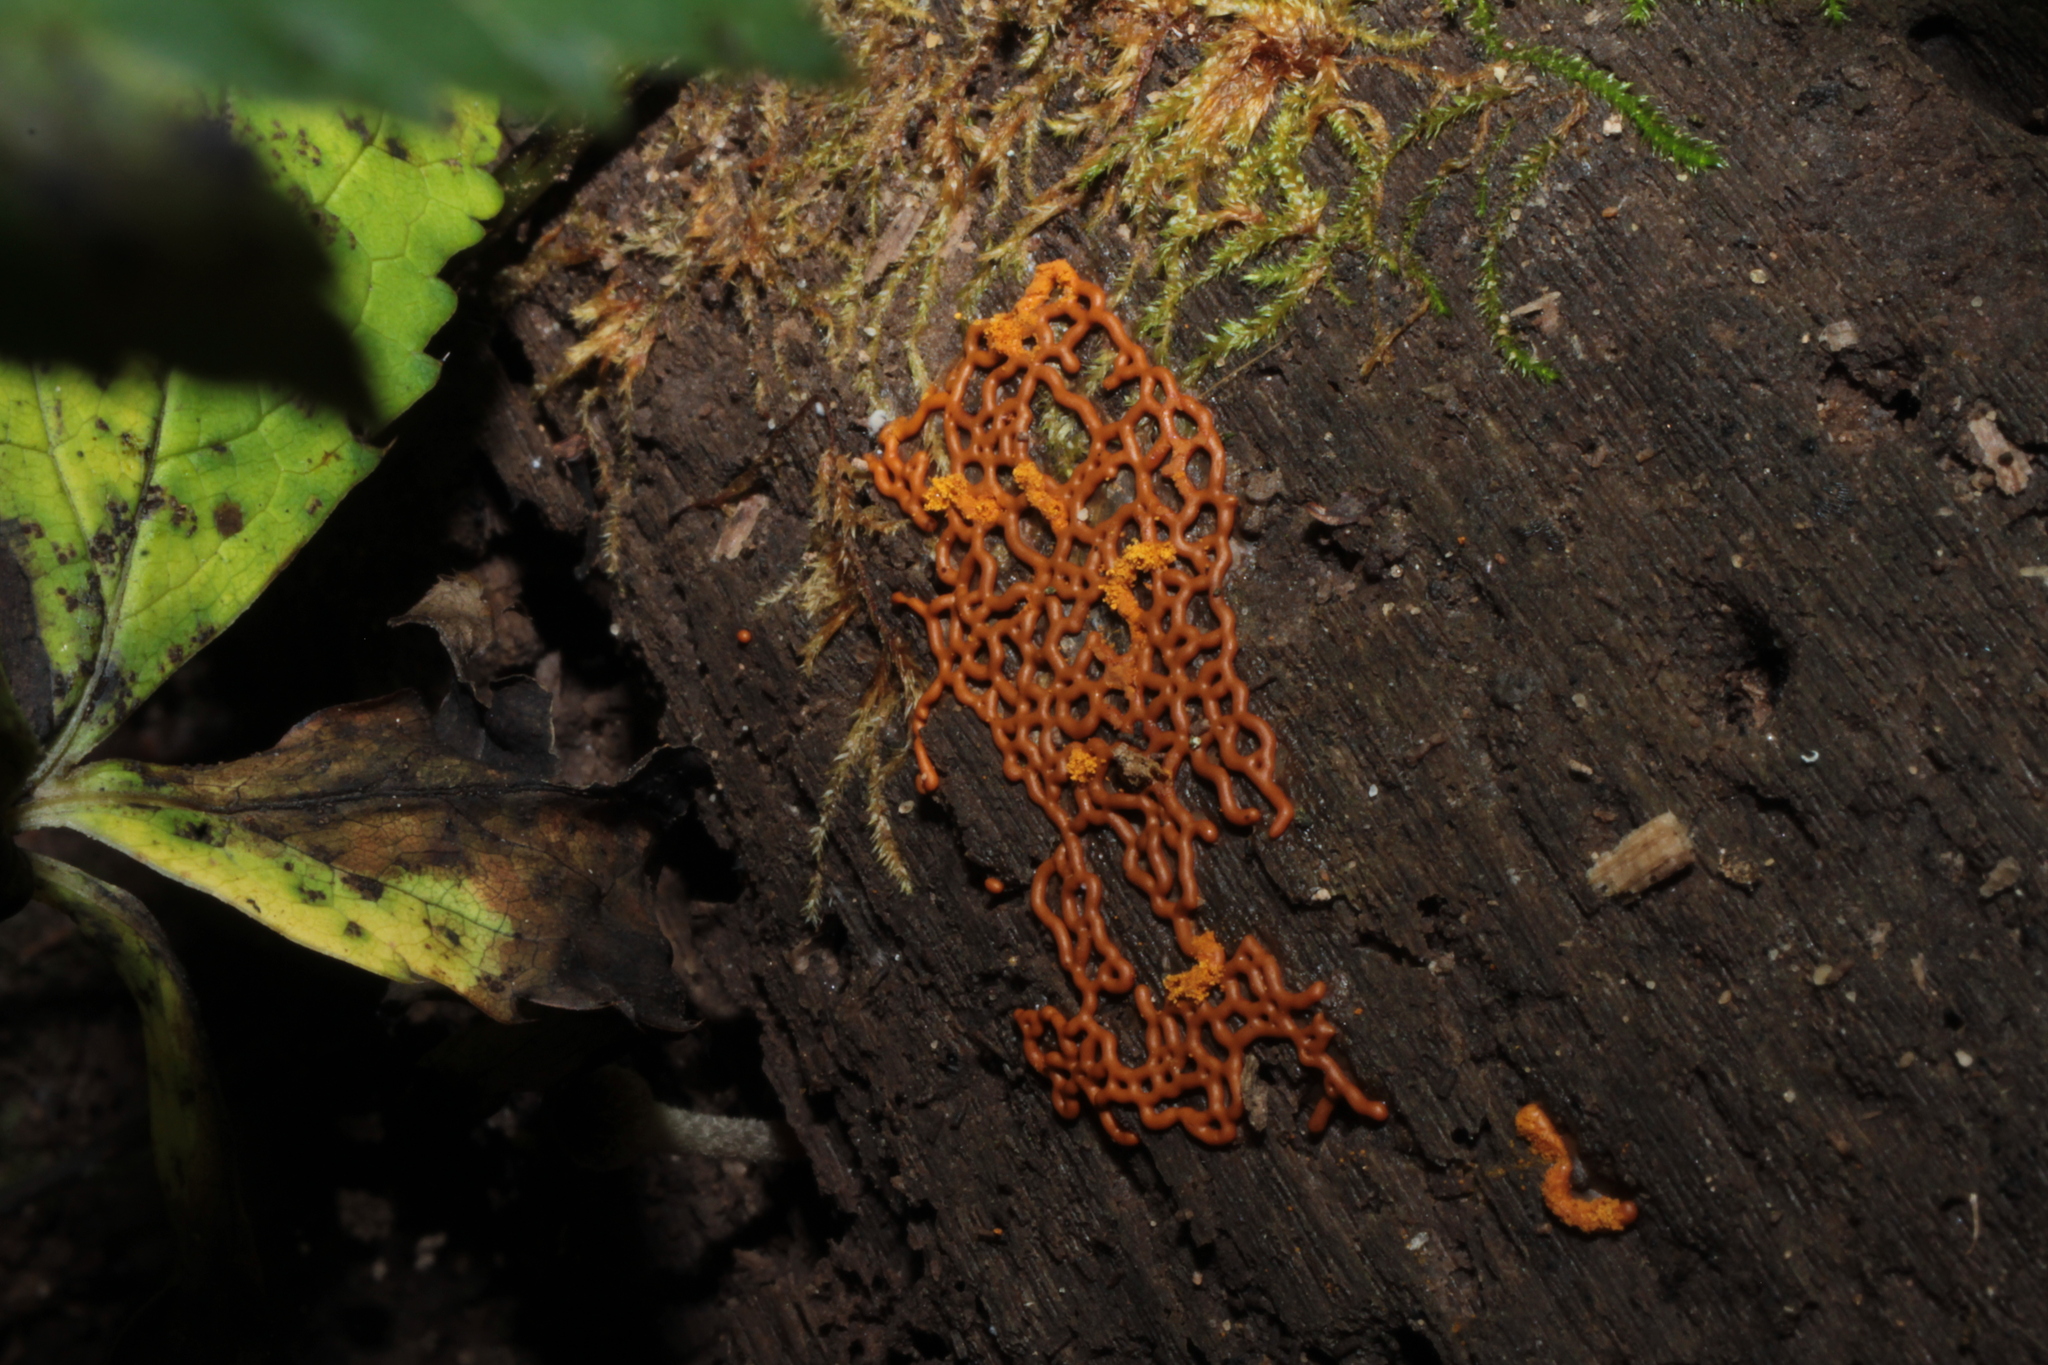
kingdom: Protozoa
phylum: Mycetozoa
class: Myxomycetes
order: Trichiales
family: Arcyriaceae
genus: Hemitrichia
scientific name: Hemitrichia serpula
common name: Pretzel slime mold
